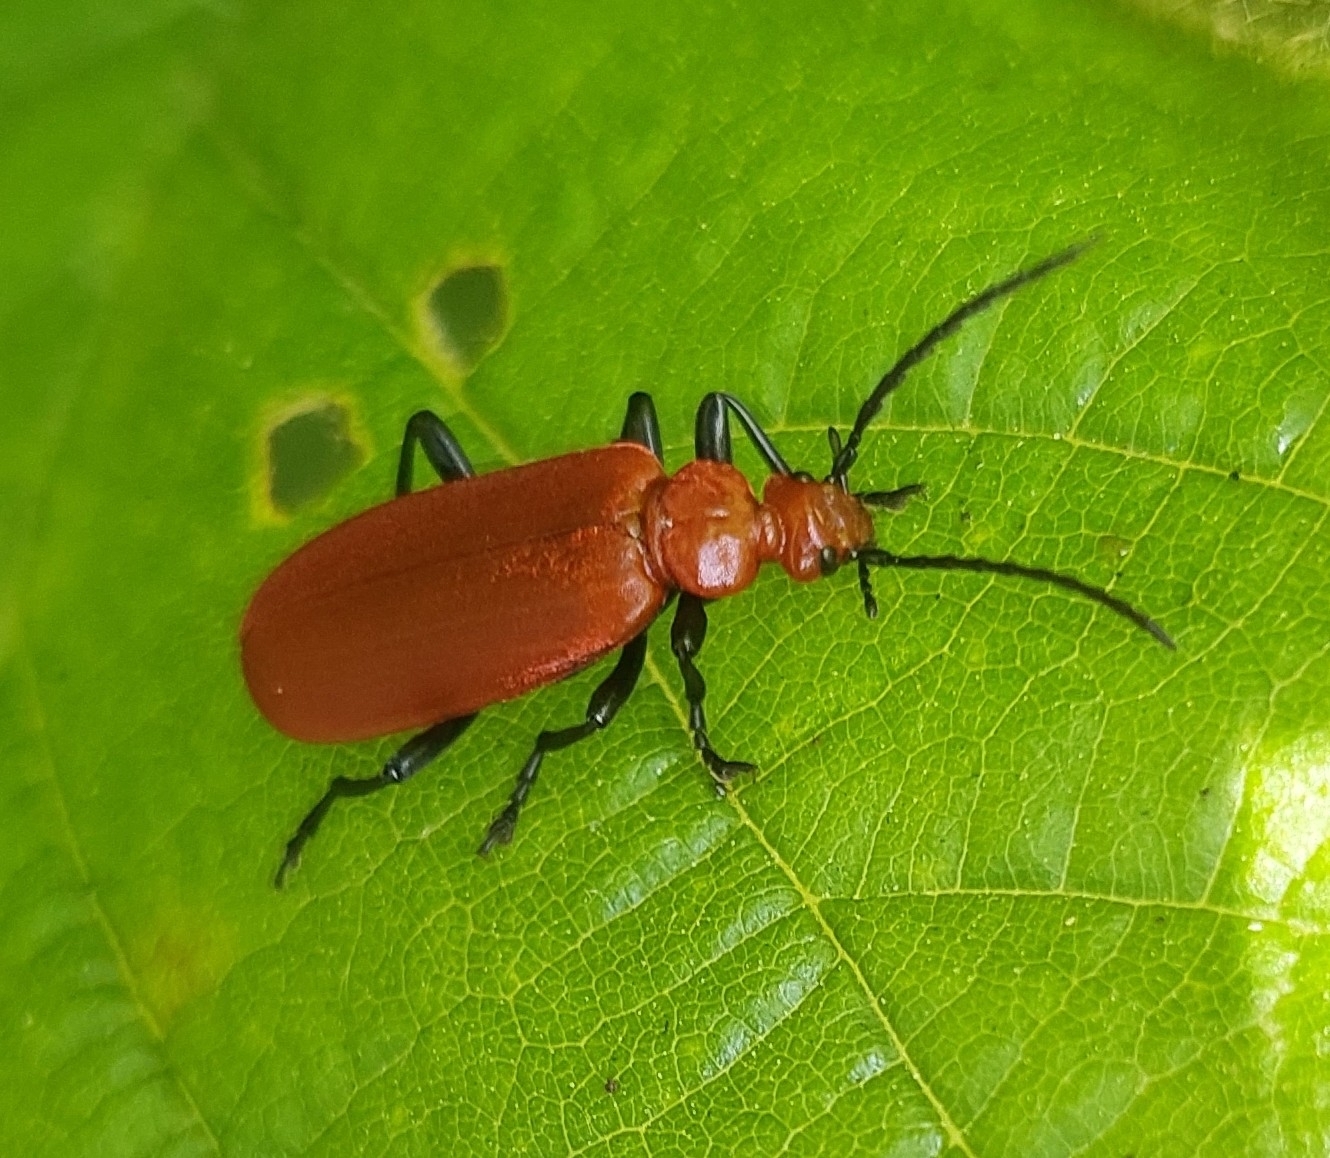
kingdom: Animalia
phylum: Arthropoda
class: Insecta
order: Coleoptera
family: Pyrochroidae
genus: Pyrochroa
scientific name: Pyrochroa serraticornis
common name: Red-headed cardinal beetle
